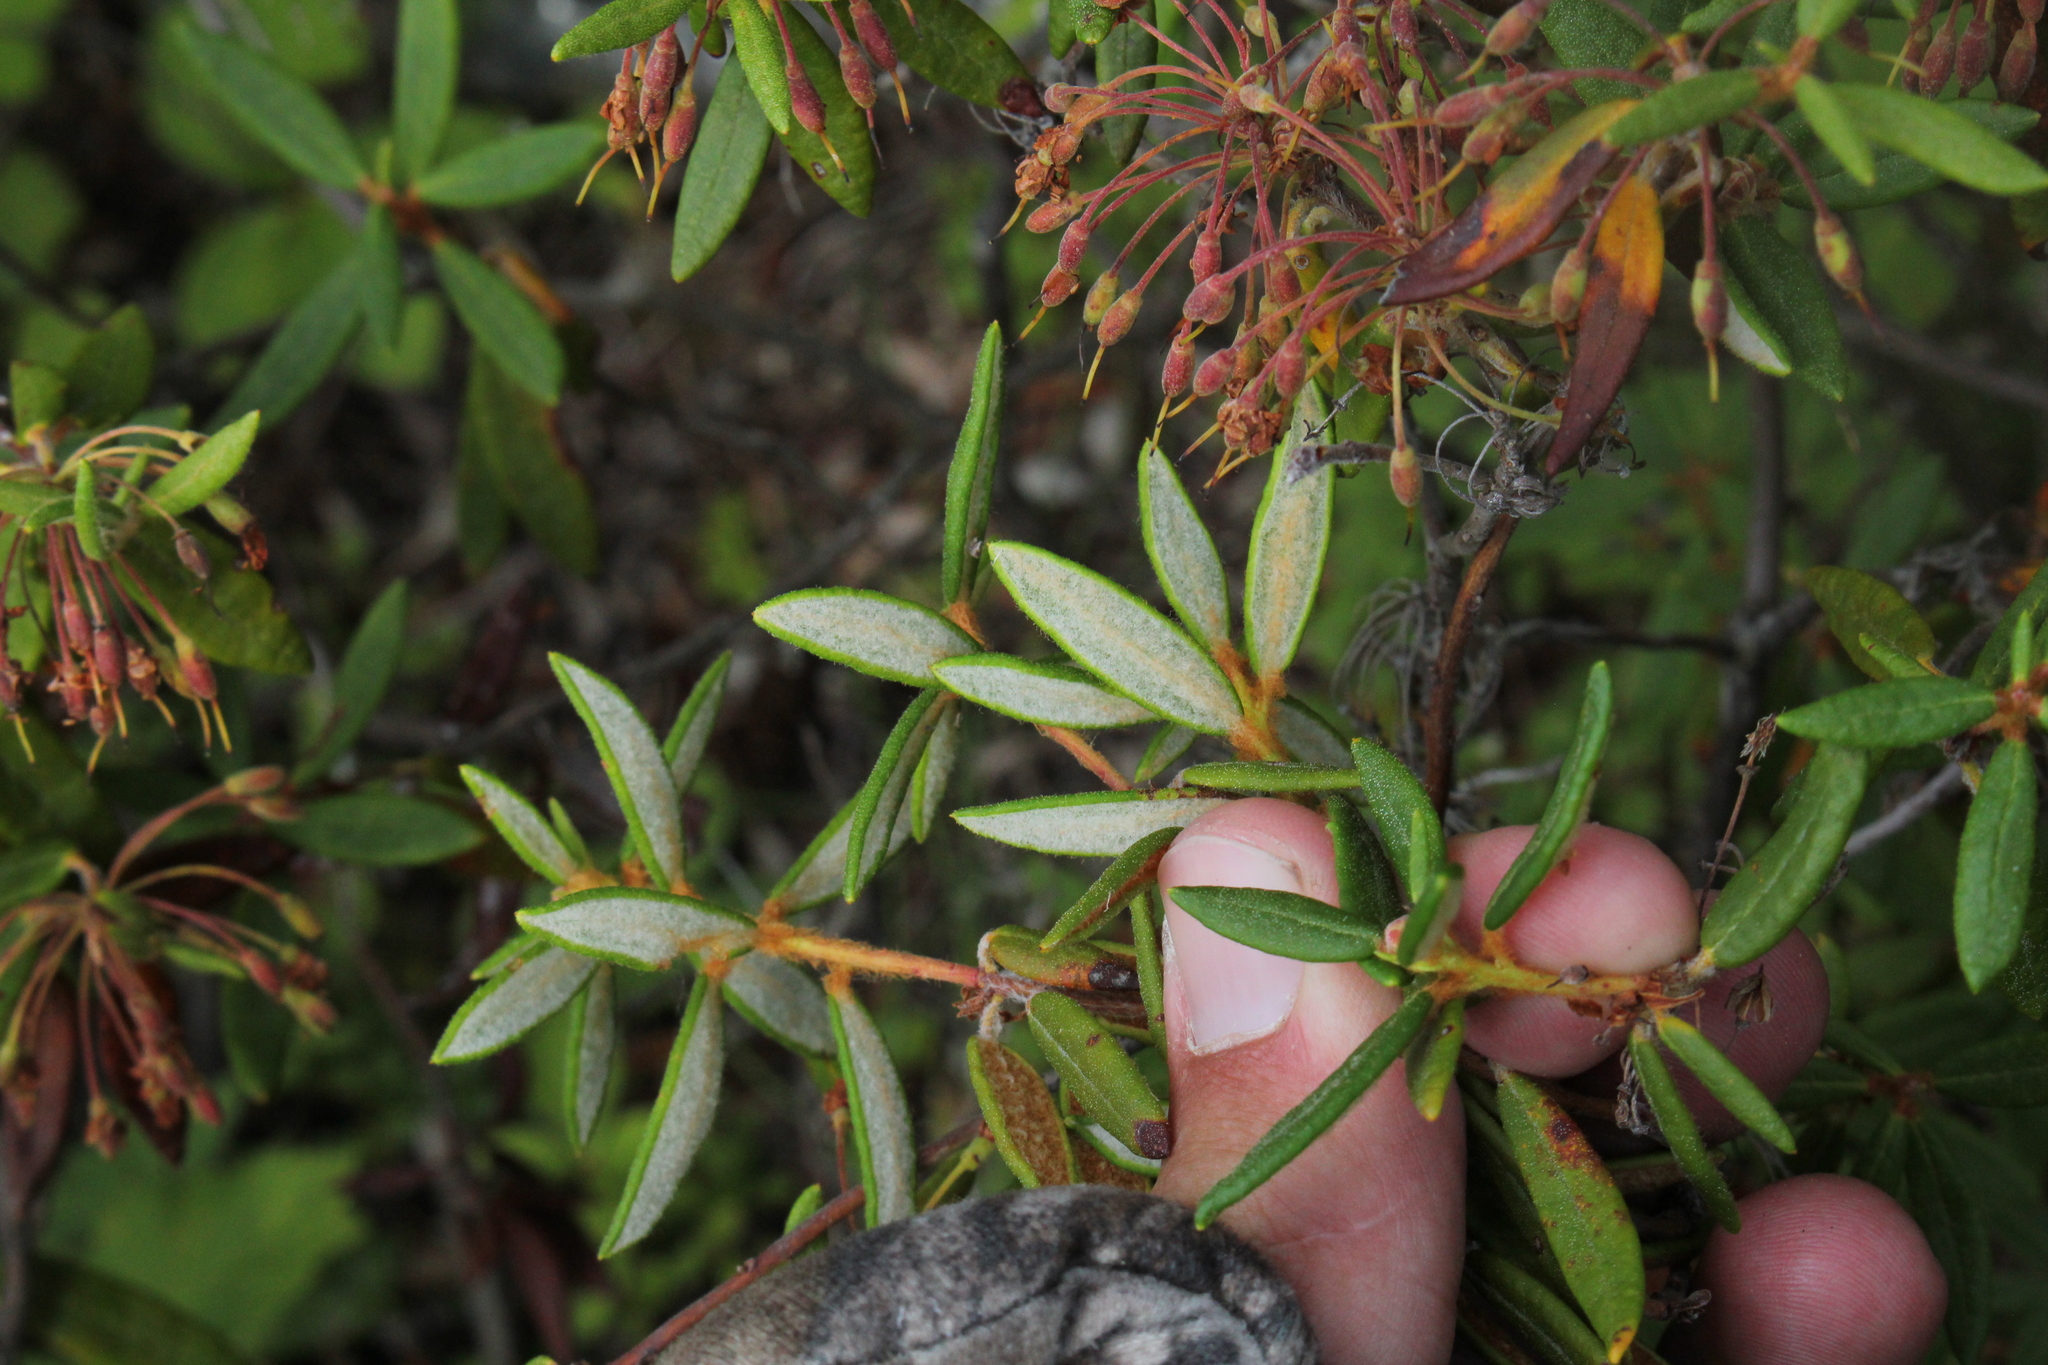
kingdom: Plantae
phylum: Tracheophyta
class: Magnoliopsida
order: Ericales
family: Ericaceae
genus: Rhododendron
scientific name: Rhododendron groenlandicum
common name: Bog labrador tea
